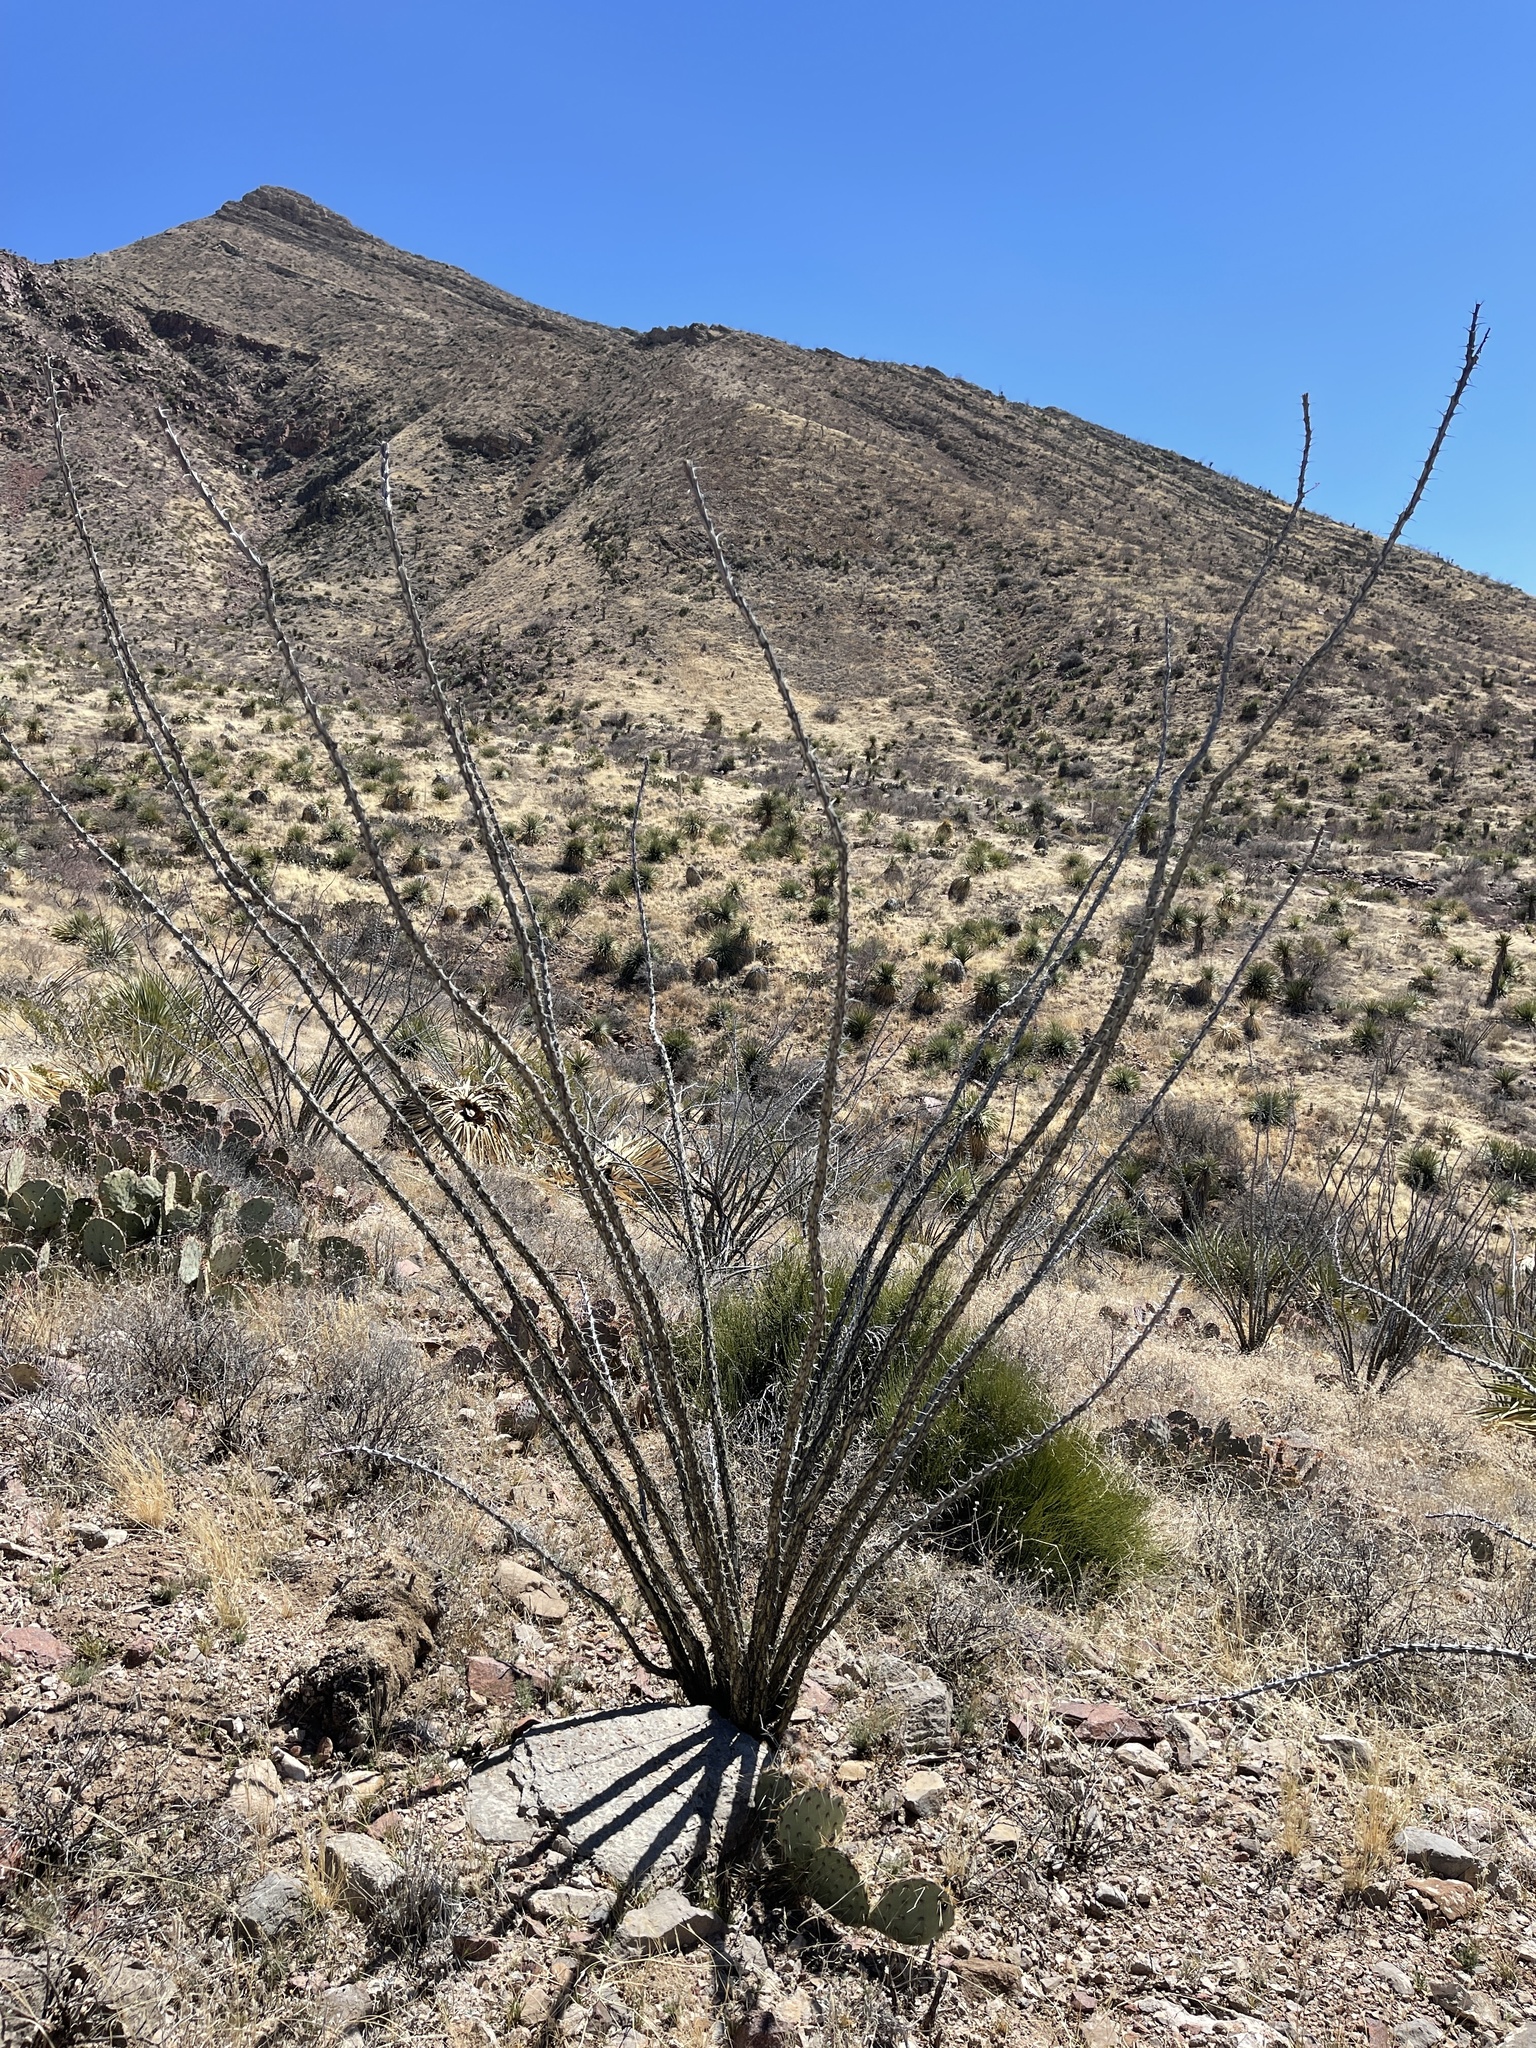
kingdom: Plantae
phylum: Tracheophyta
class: Magnoliopsida
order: Ericales
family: Fouquieriaceae
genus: Fouquieria
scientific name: Fouquieria splendens
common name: Vine-cactus
